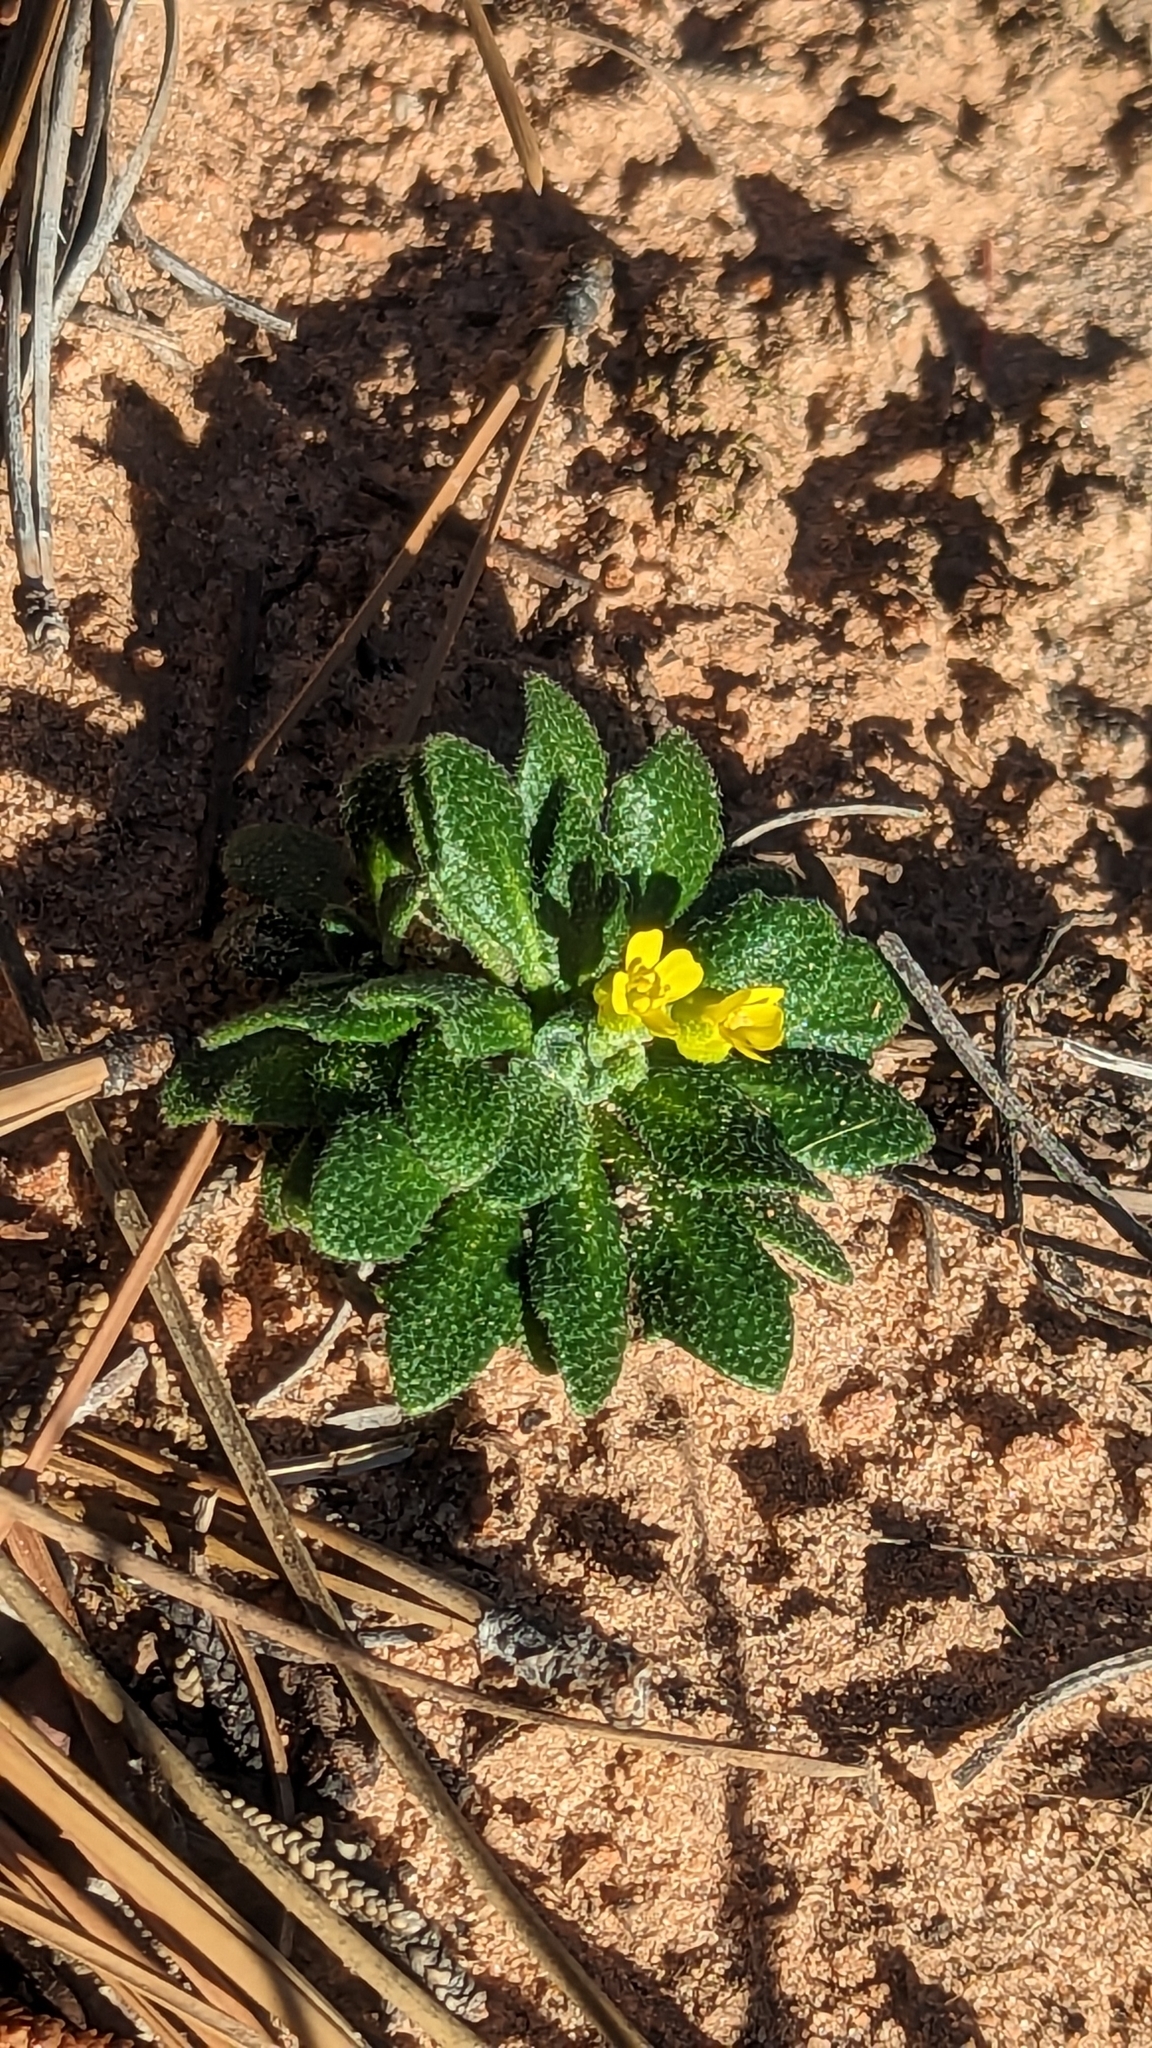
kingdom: Plantae
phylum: Tracheophyta
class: Magnoliopsida
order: Brassicales
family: Brassicaceae
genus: Draba
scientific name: Draba zionensis
